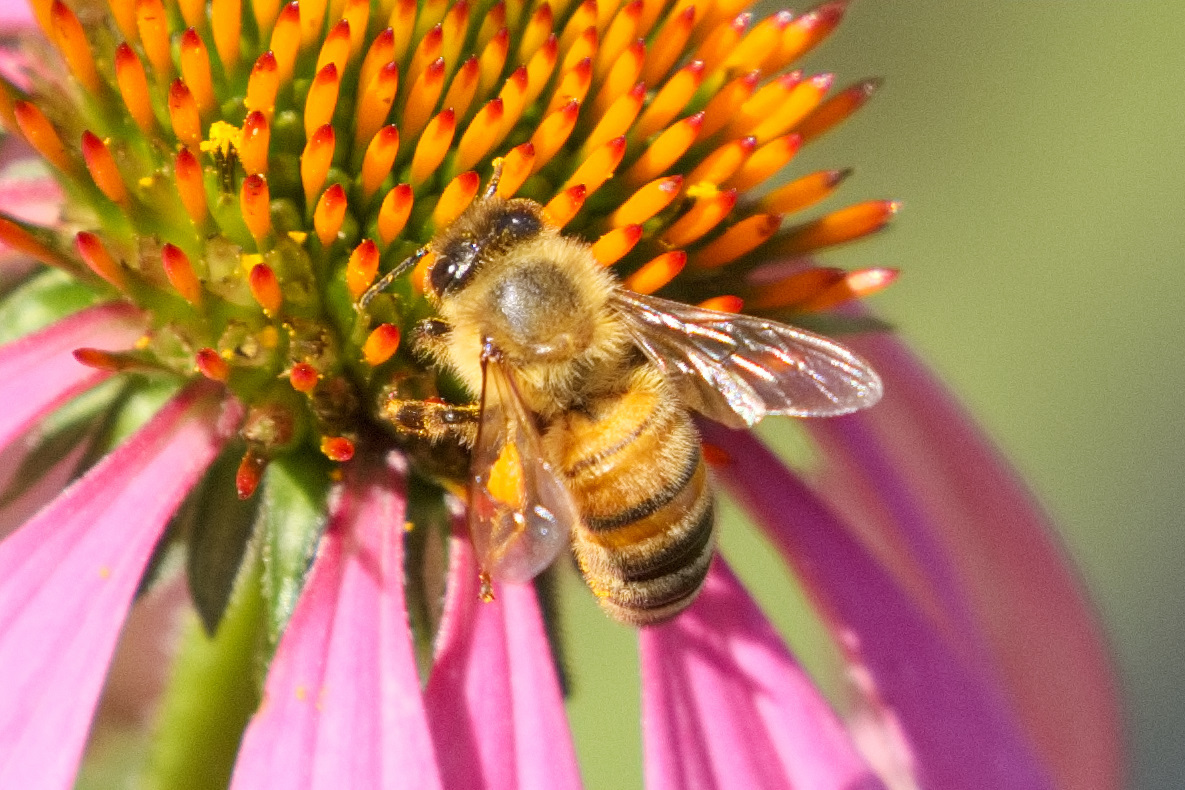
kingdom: Animalia
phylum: Arthropoda
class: Insecta
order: Hymenoptera
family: Apidae
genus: Apis
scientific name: Apis mellifera
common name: Honey bee
